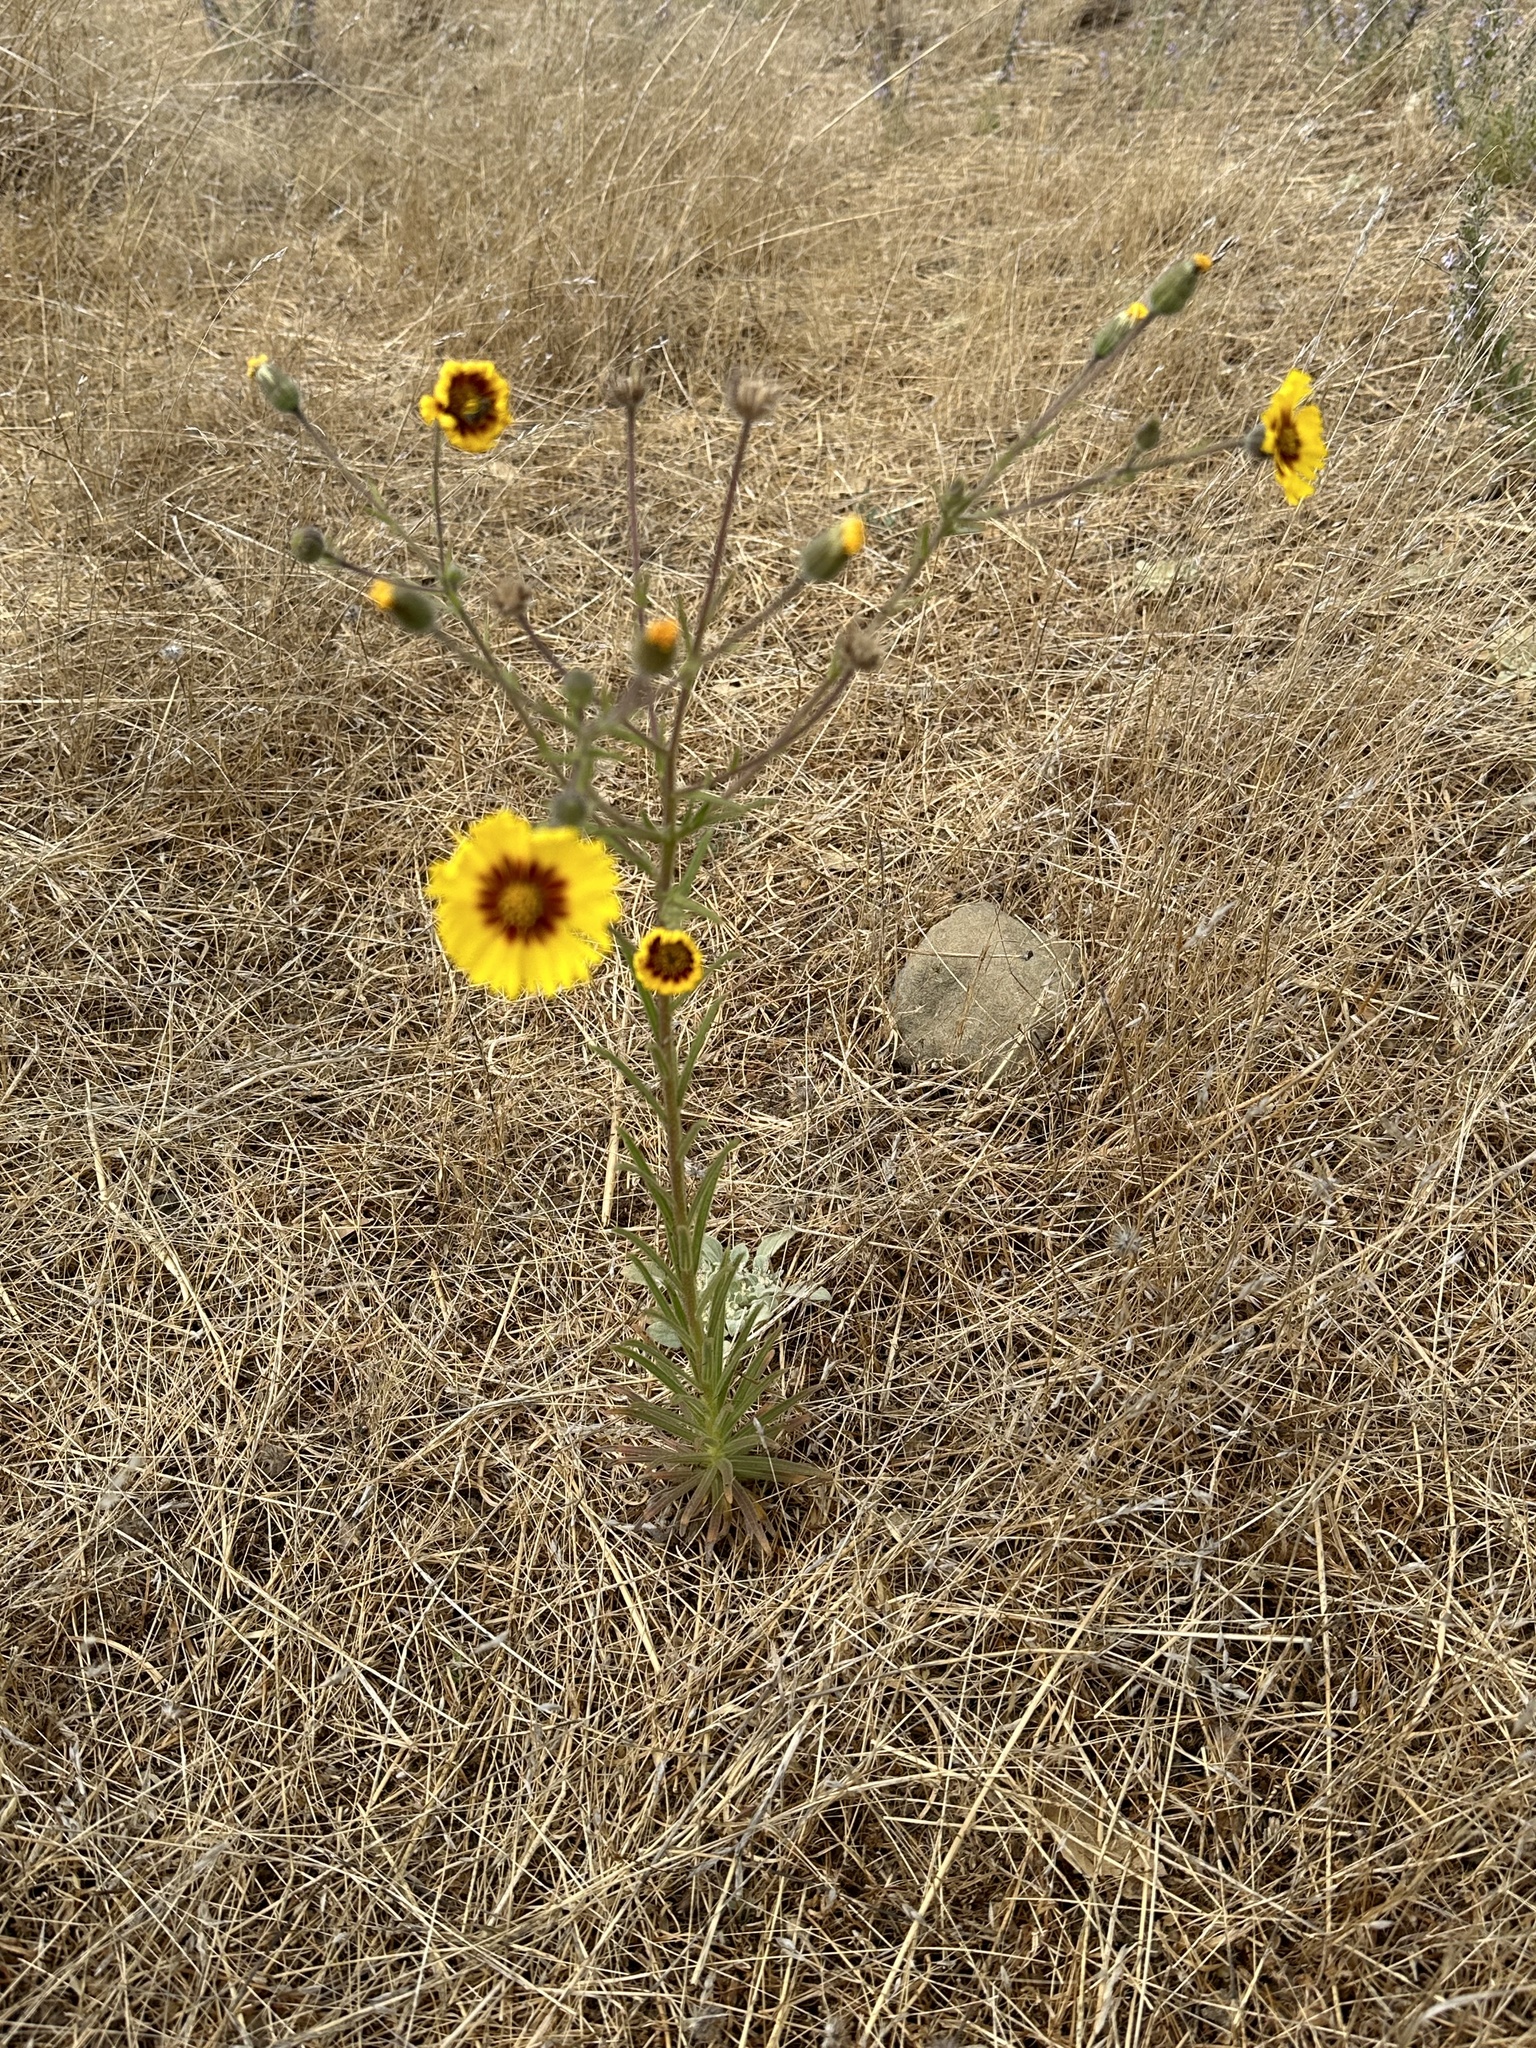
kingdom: Plantae
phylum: Tracheophyta
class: Magnoliopsida
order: Asterales
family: Asteraceae
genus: Madia
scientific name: Madia elegans
